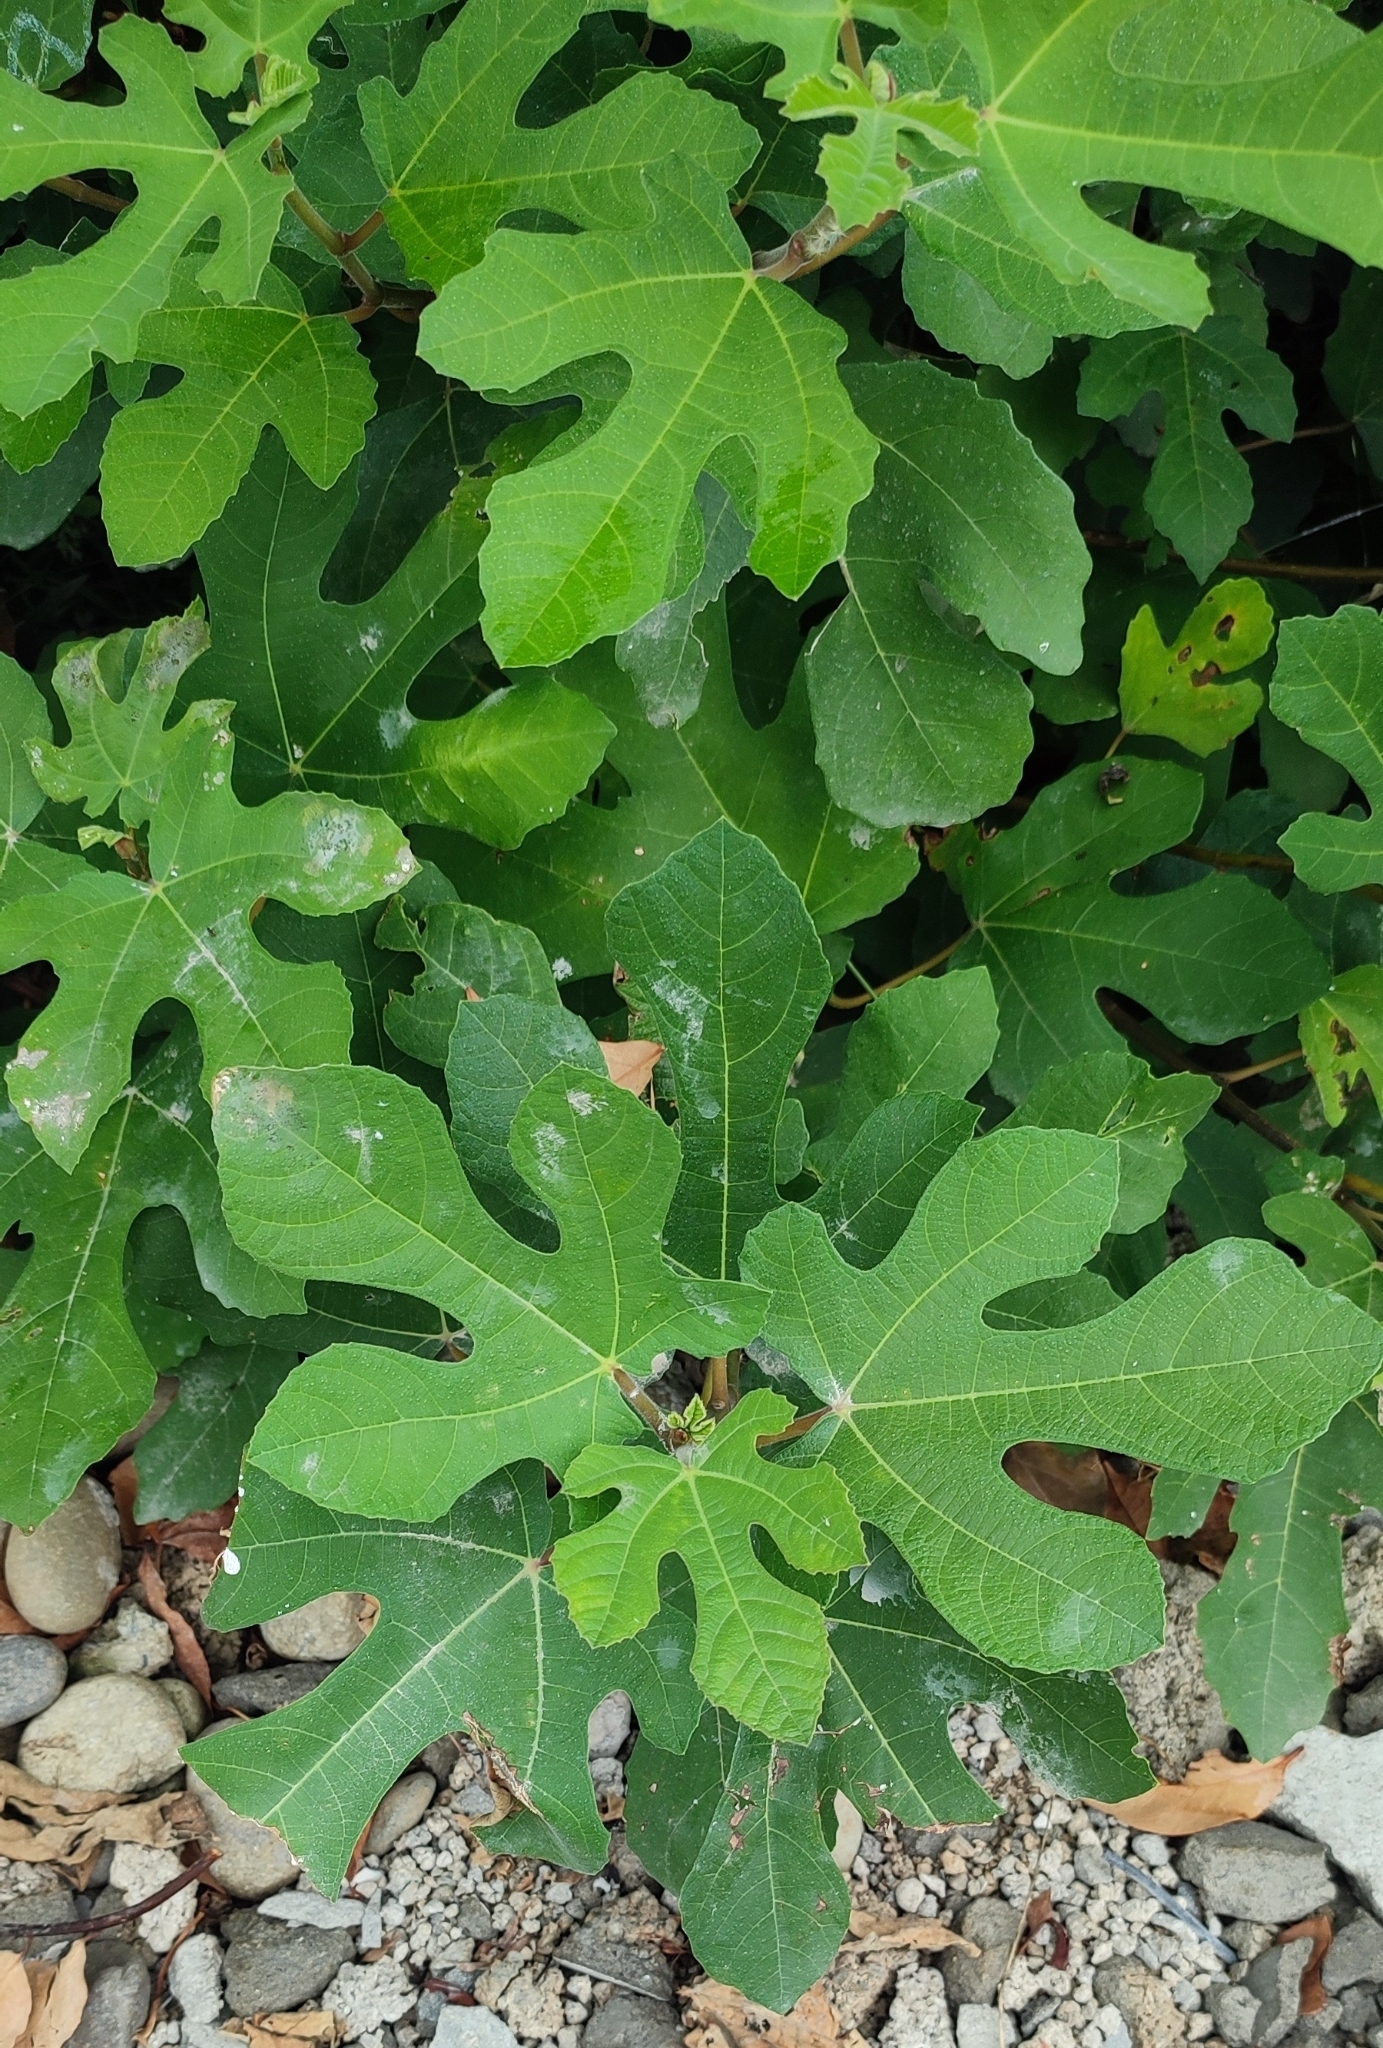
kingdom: Plantae
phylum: Tracheophyta
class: Magnoliopsida
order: Rosales
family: Moraceae
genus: Ficus
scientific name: Ficus carica
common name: Fig
